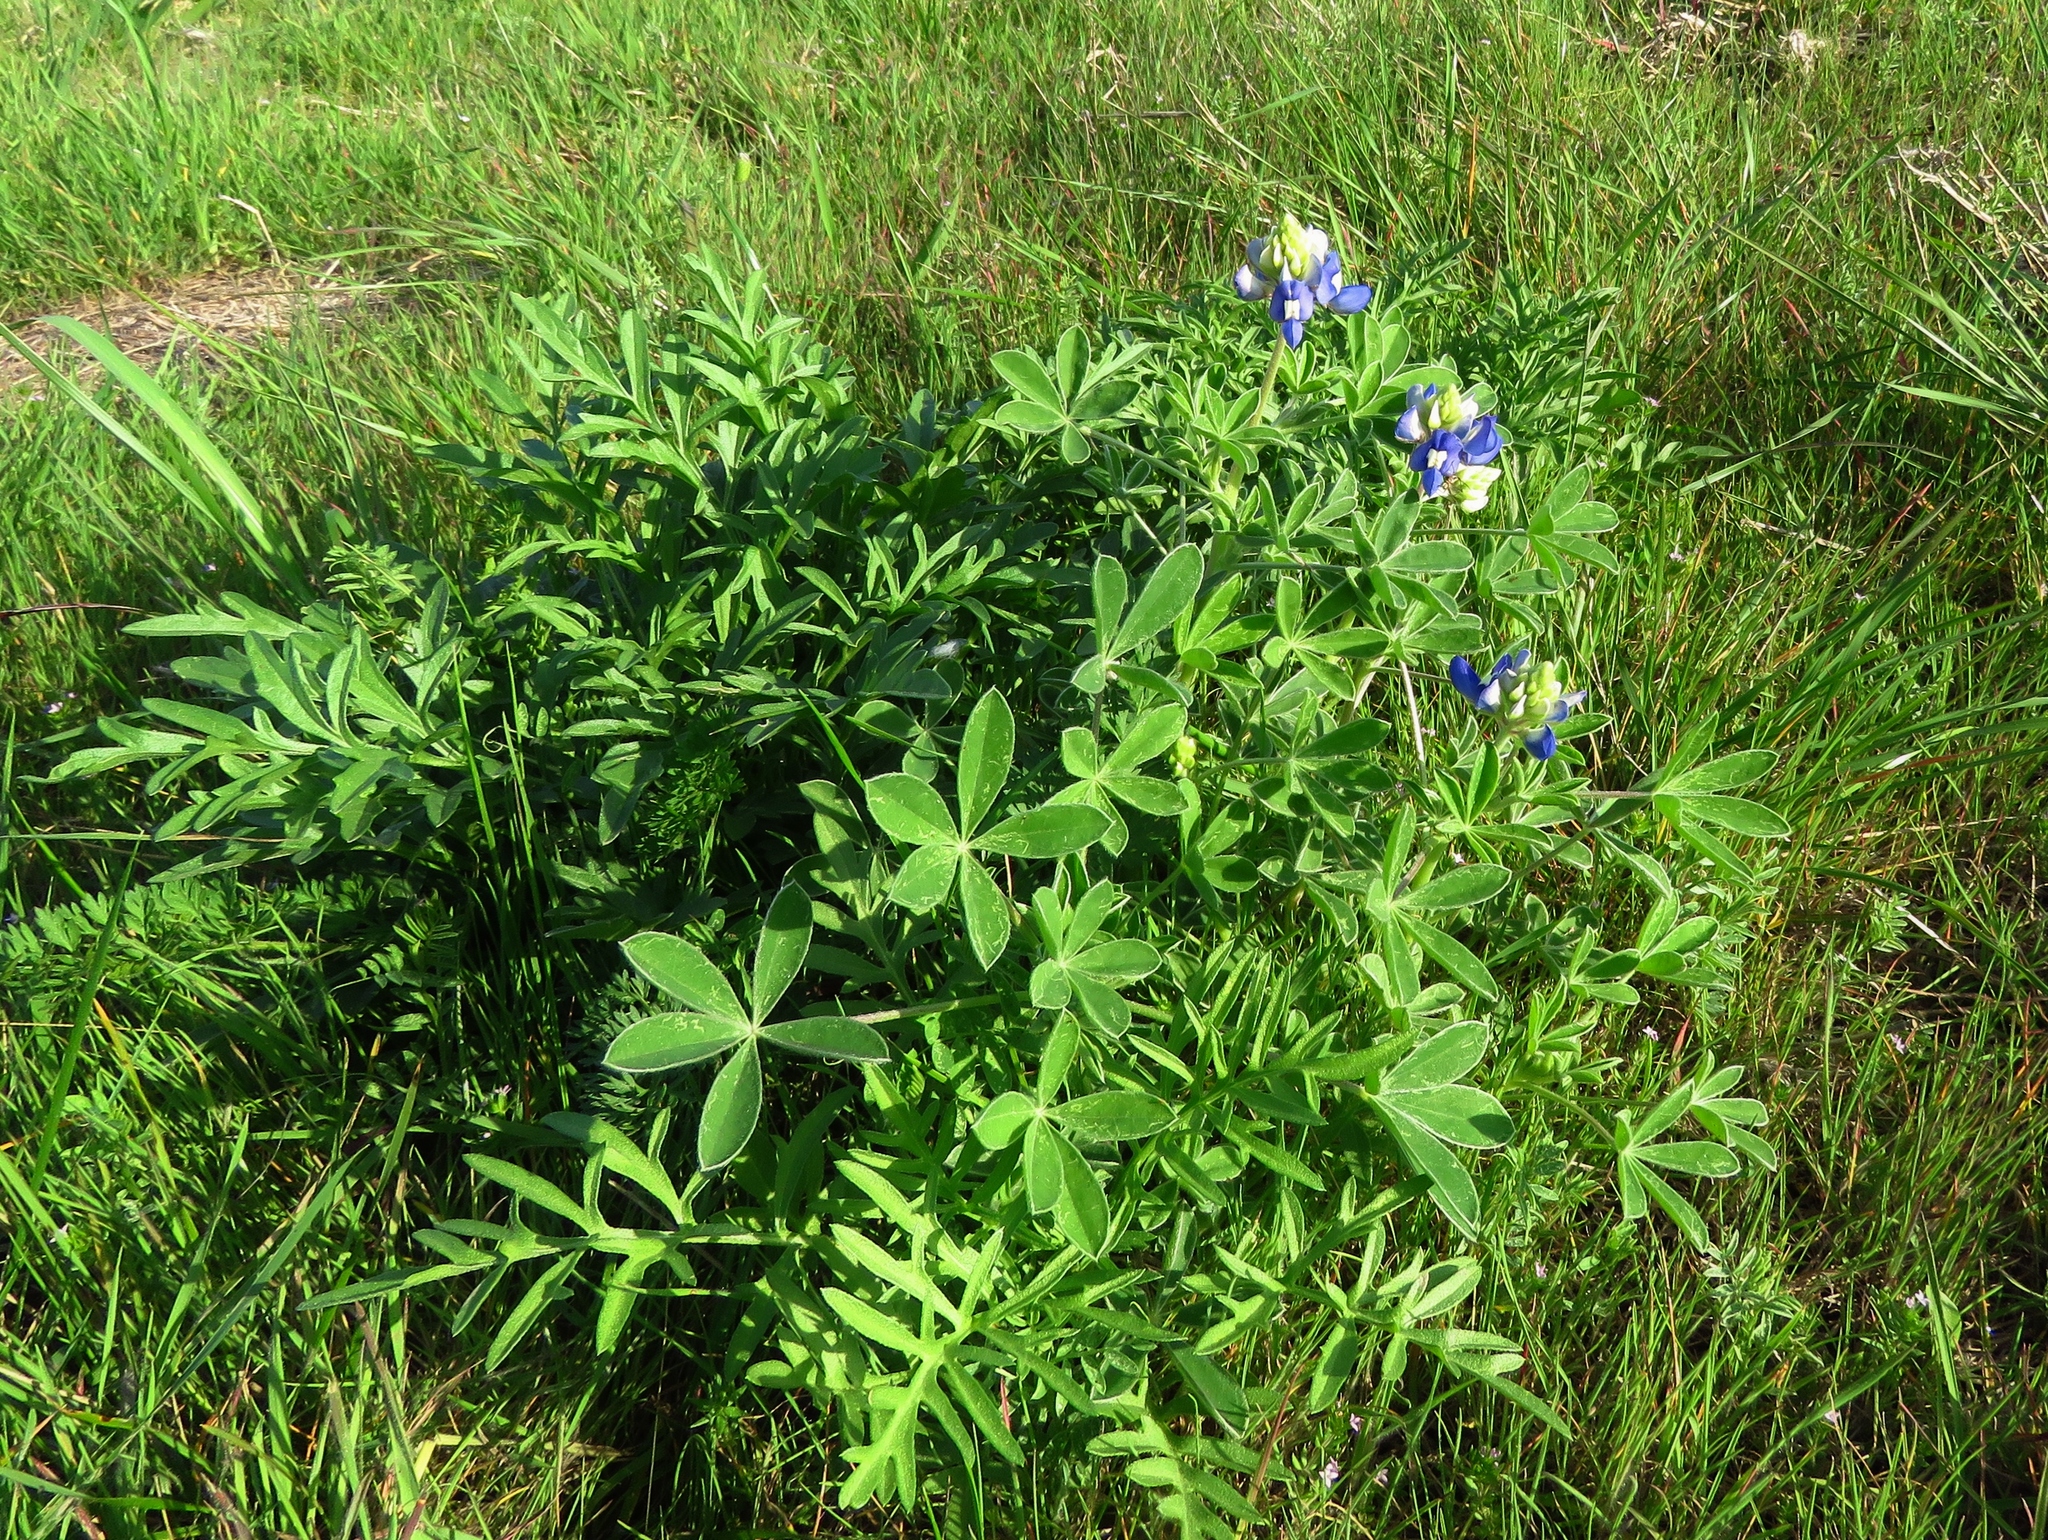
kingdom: Plantae
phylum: Tracheophyta
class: Magnoliopsida
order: Fabales
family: Fabaceae
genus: Lupinus
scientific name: Lupinus texensis
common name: Texas bluebonnet
